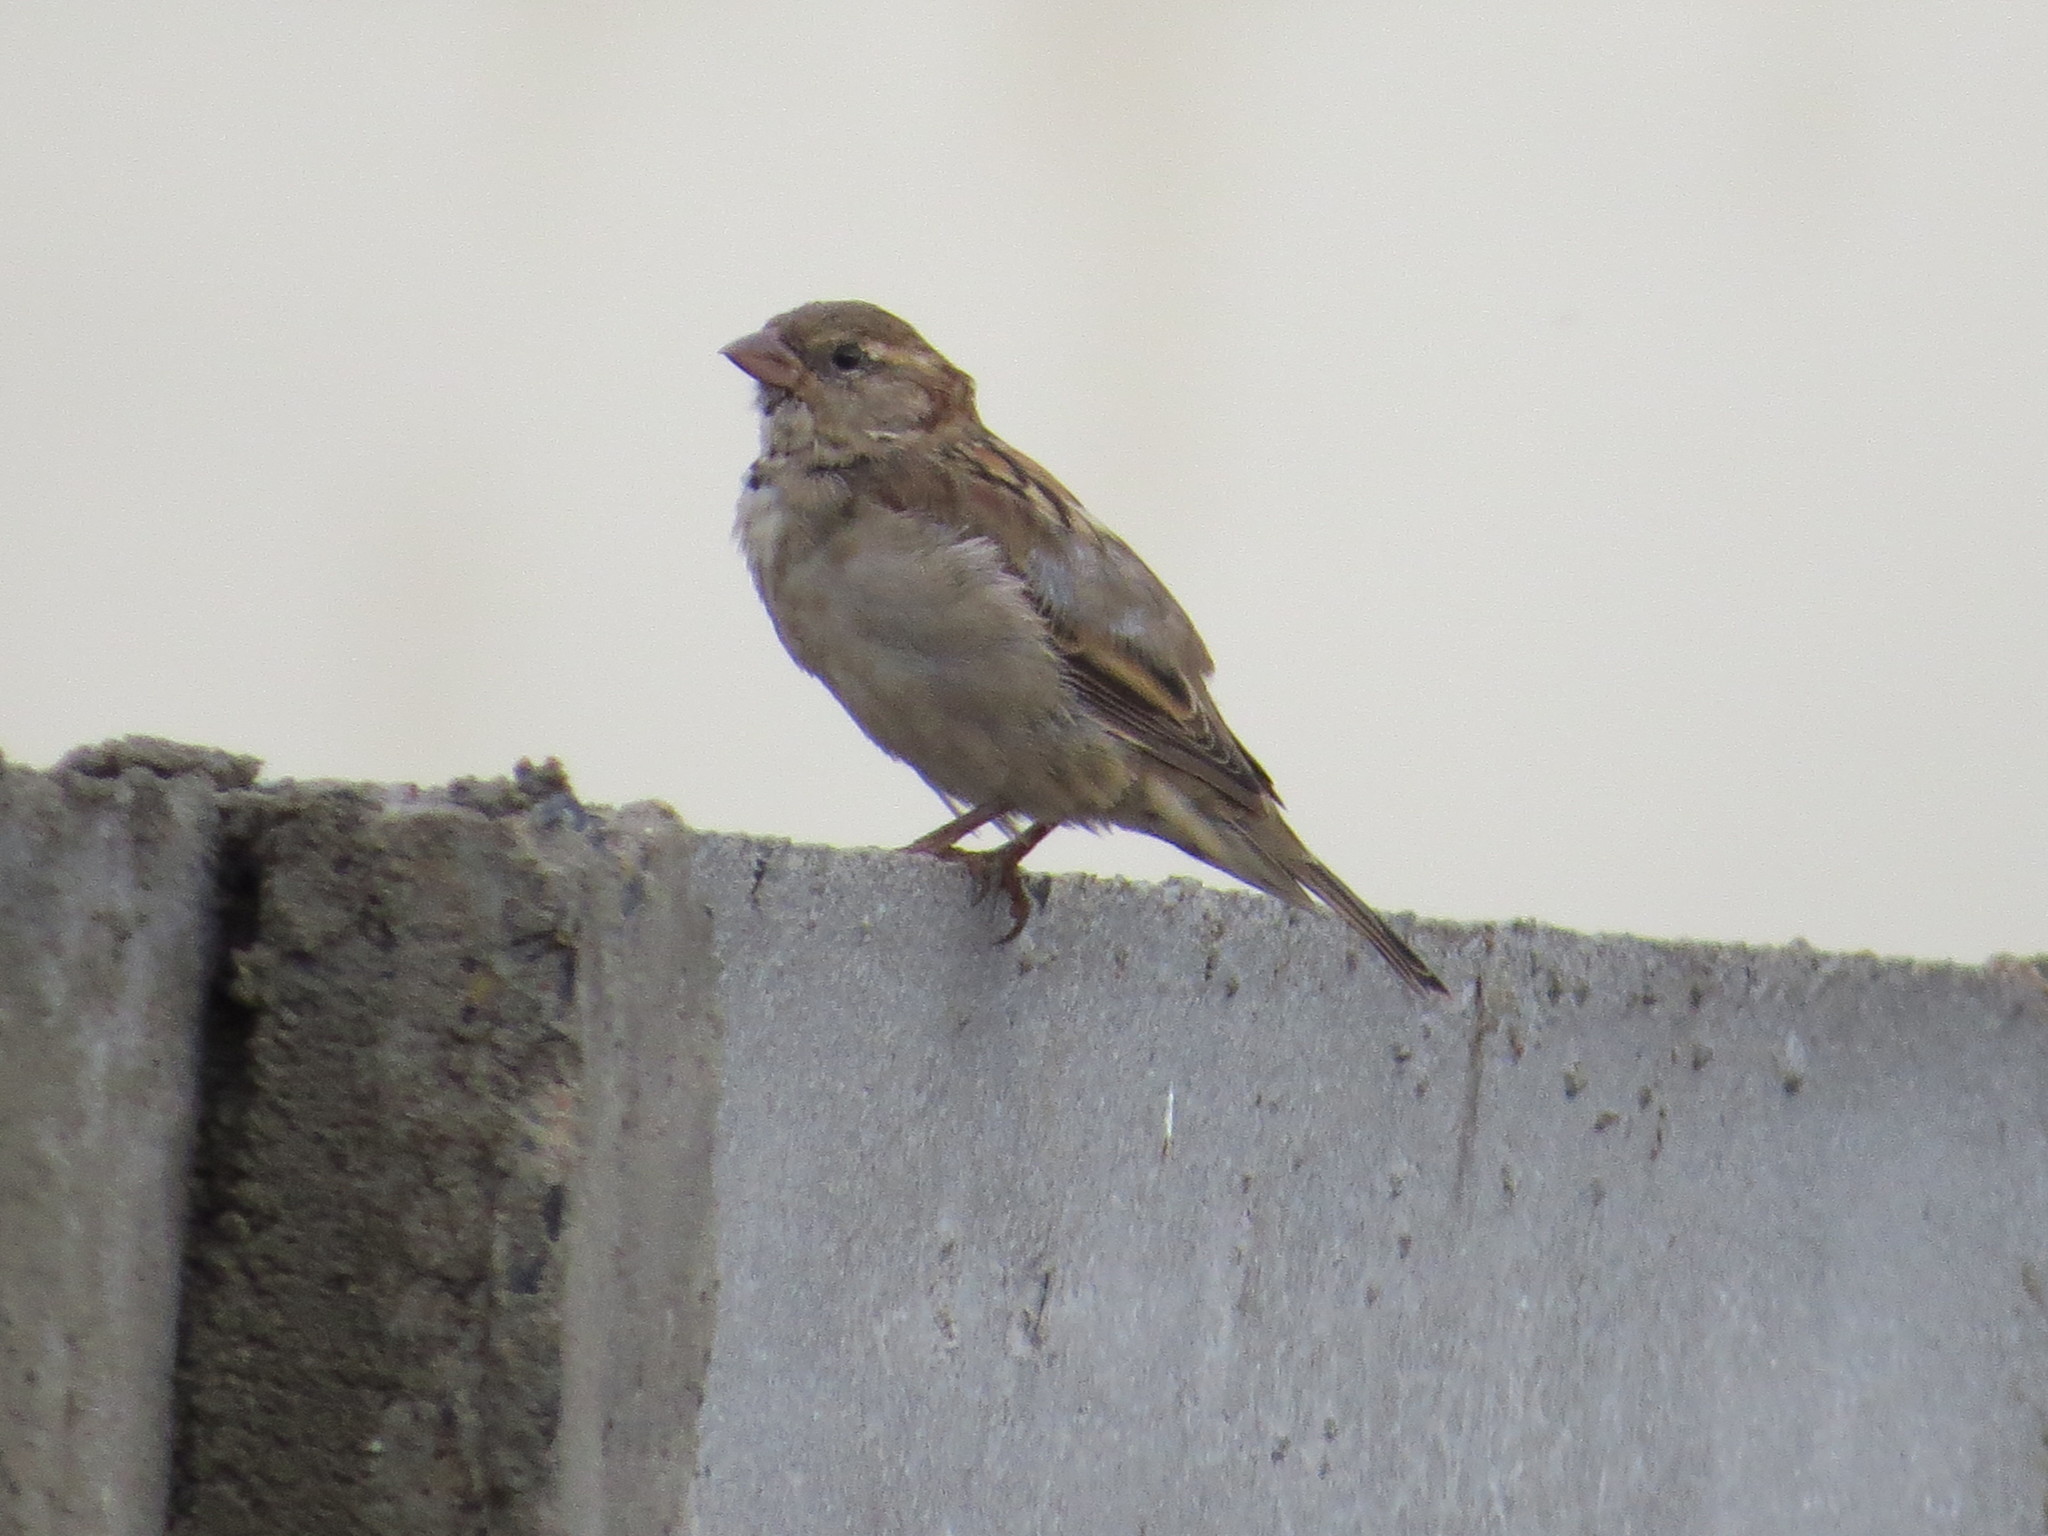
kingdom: Animalia
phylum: Chordata
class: Aves
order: Passeriformes
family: Passeridae
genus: Passer
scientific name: Passer domesticus
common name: House sparrow
